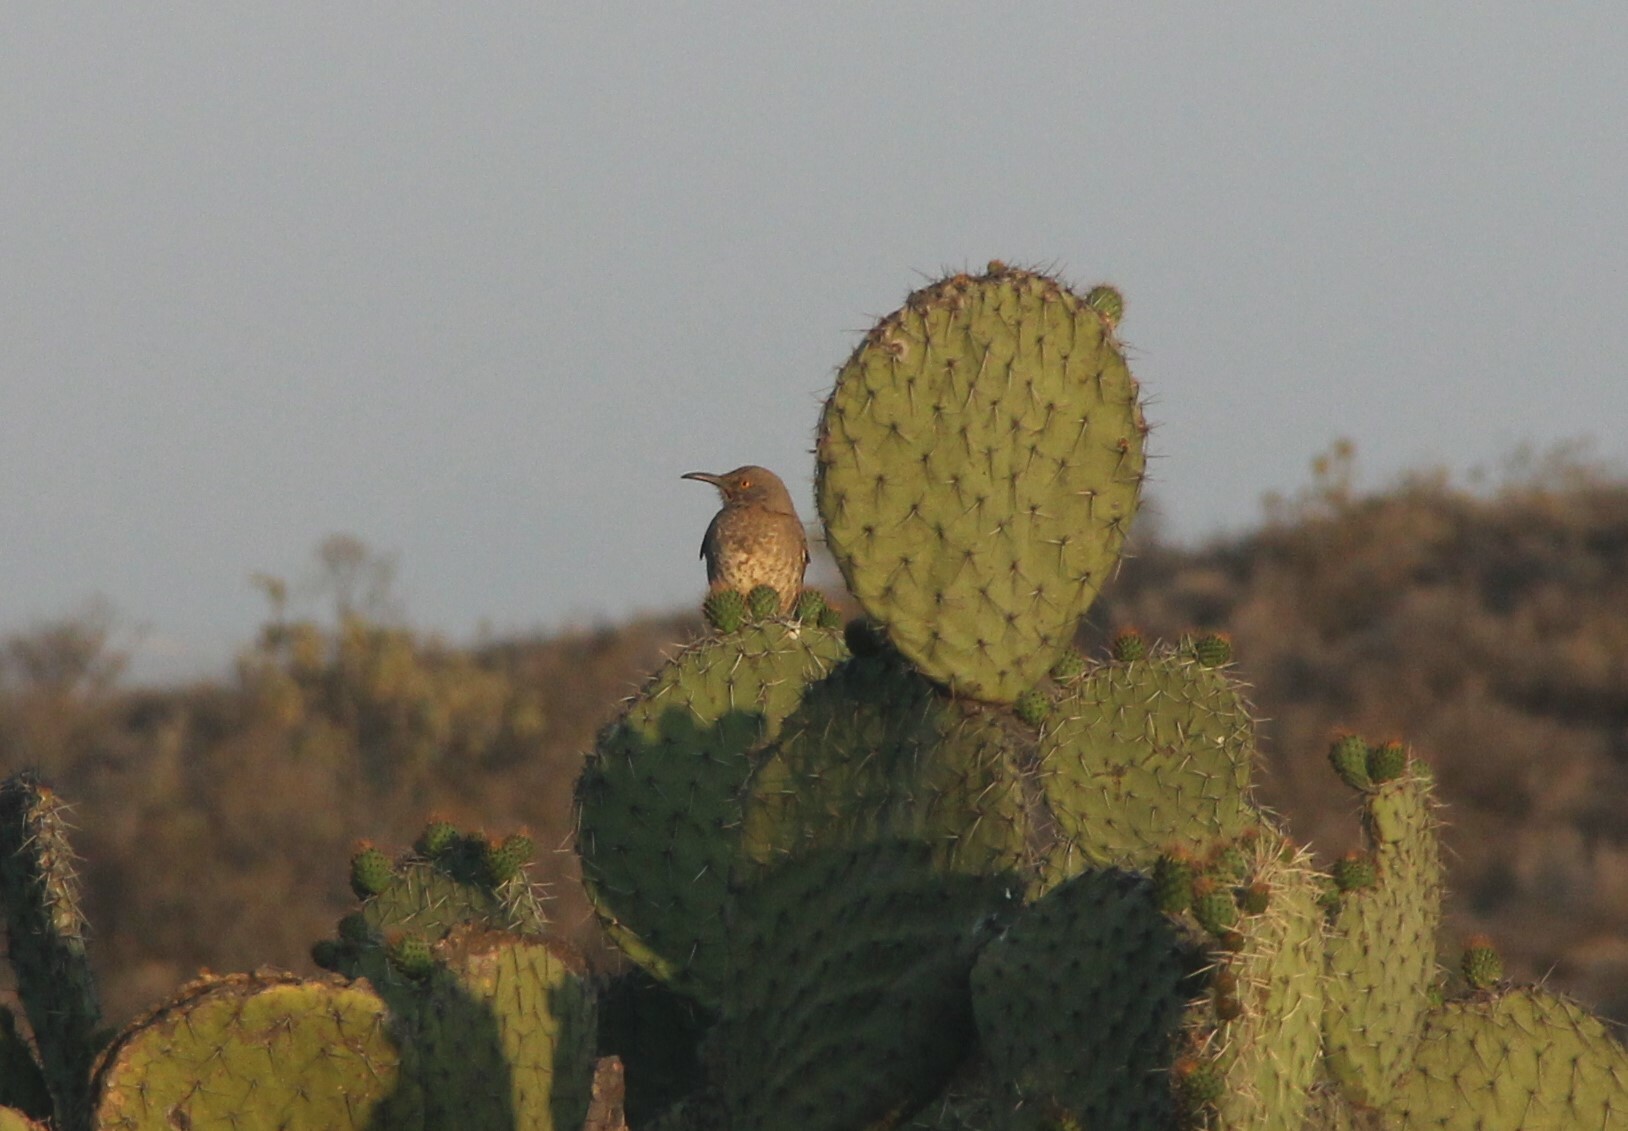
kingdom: Animalia
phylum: Chordata
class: Aves
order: Passeriformes
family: Mimidae
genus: Toxostoma
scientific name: Toxostoma curvirostre
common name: Curve-billed thrasher
